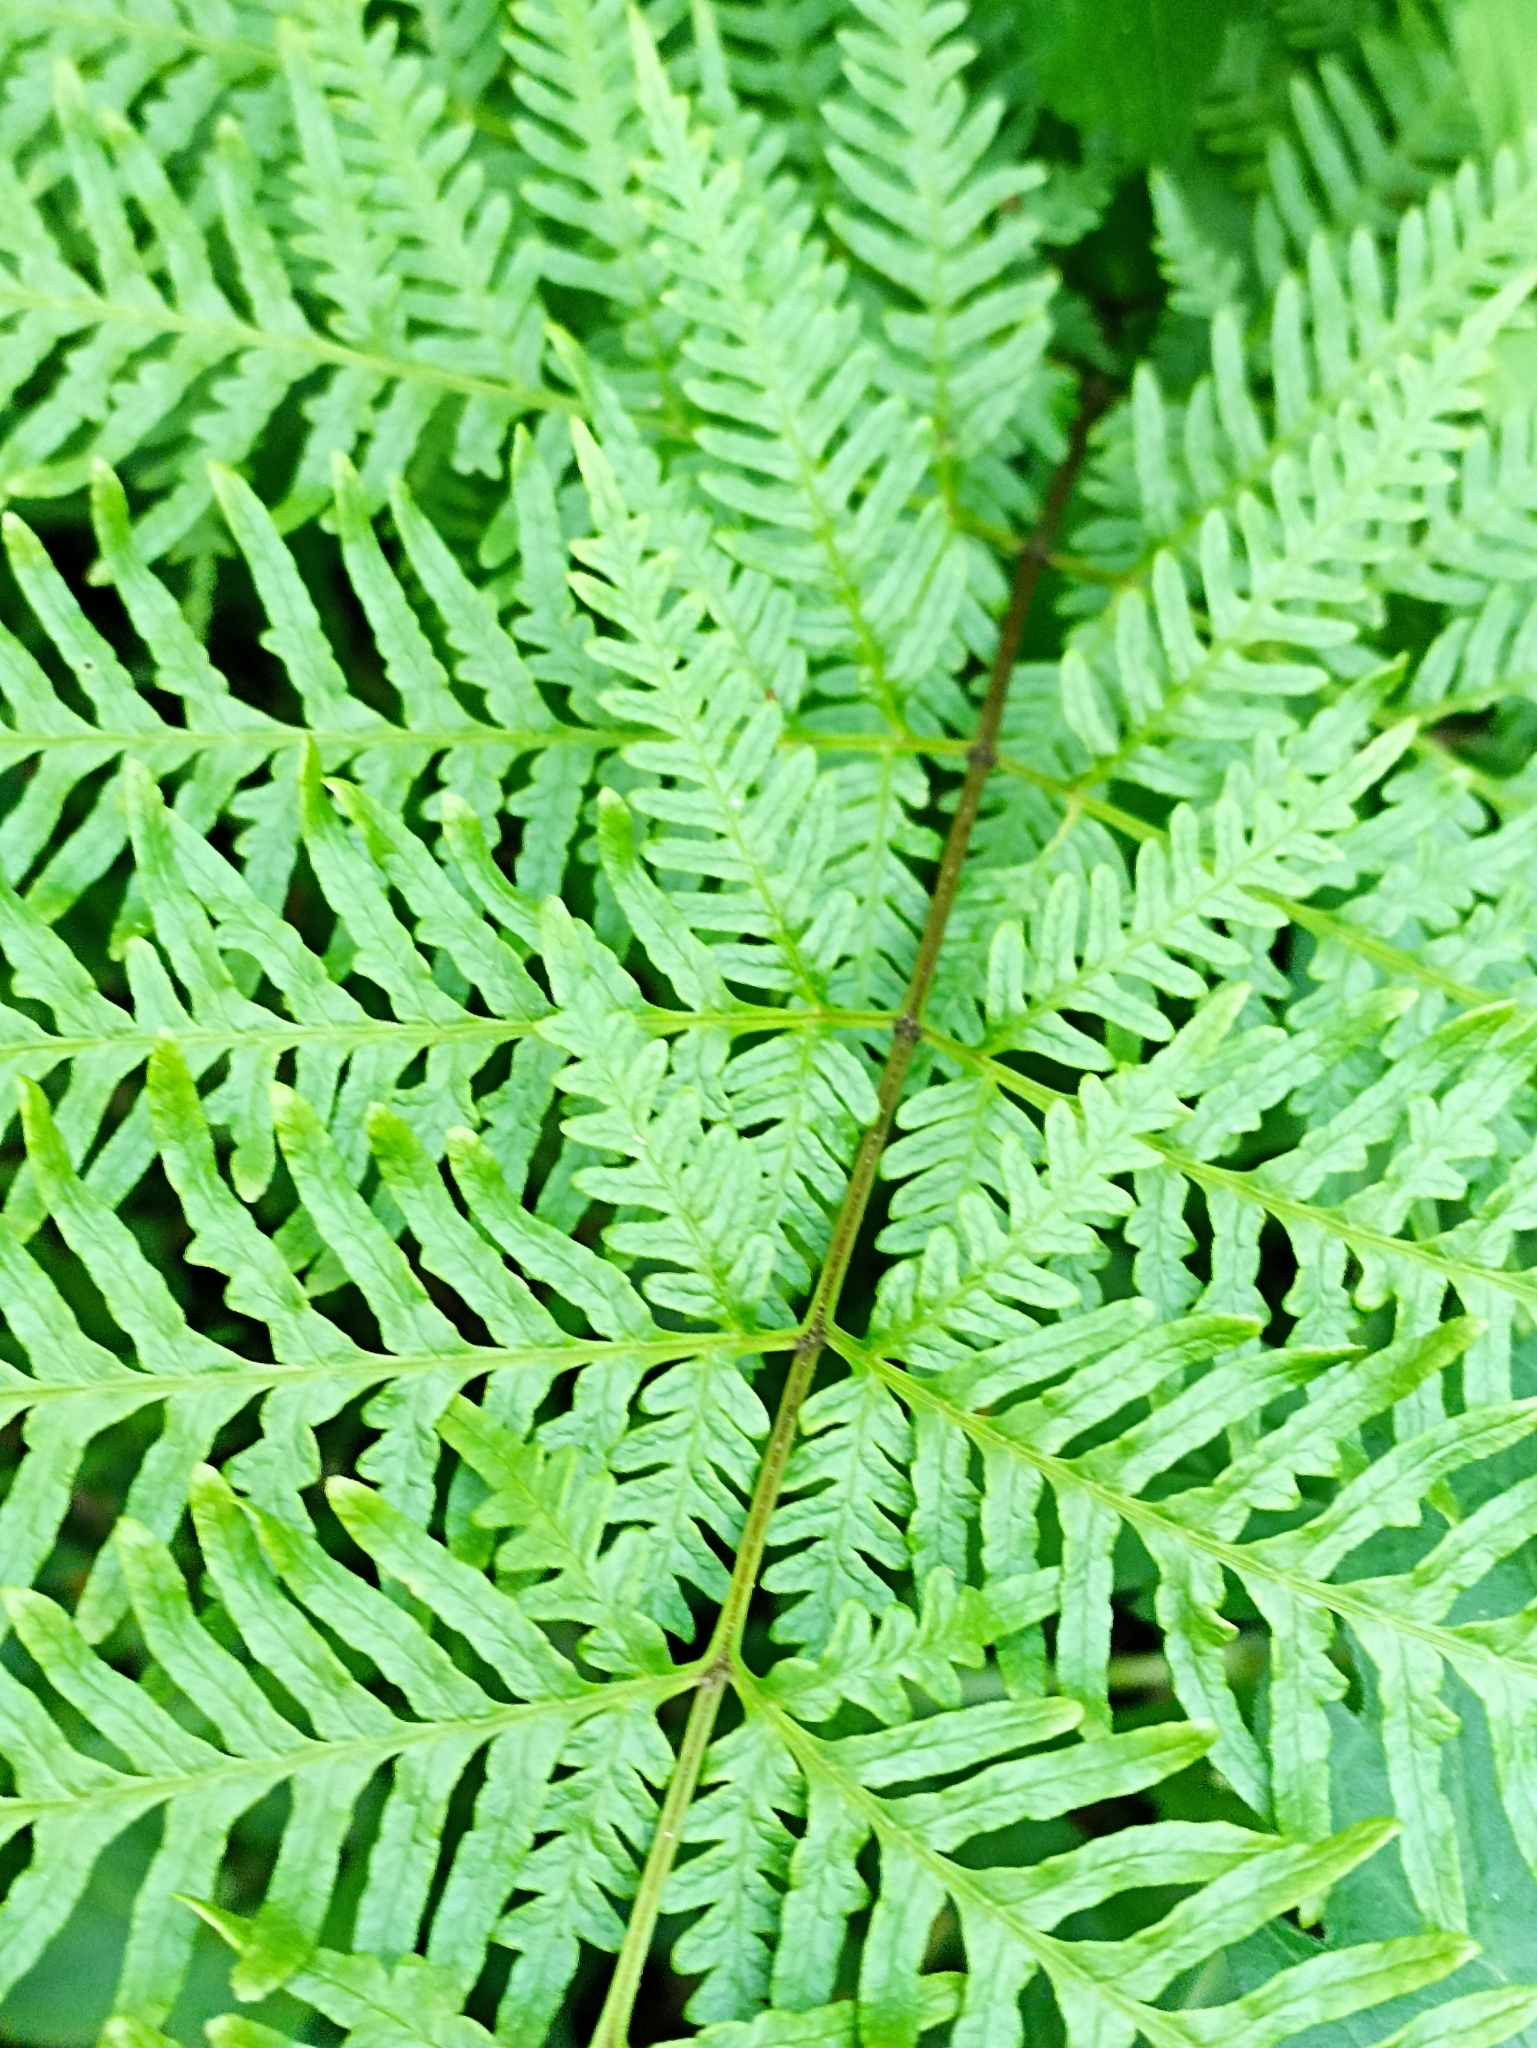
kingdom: Plantae
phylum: Tracheophyta
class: Polypodiopsida
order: Polypodiales
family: Pteridaceae
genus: Pteris
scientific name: Pteris tremula
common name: Australian brake
